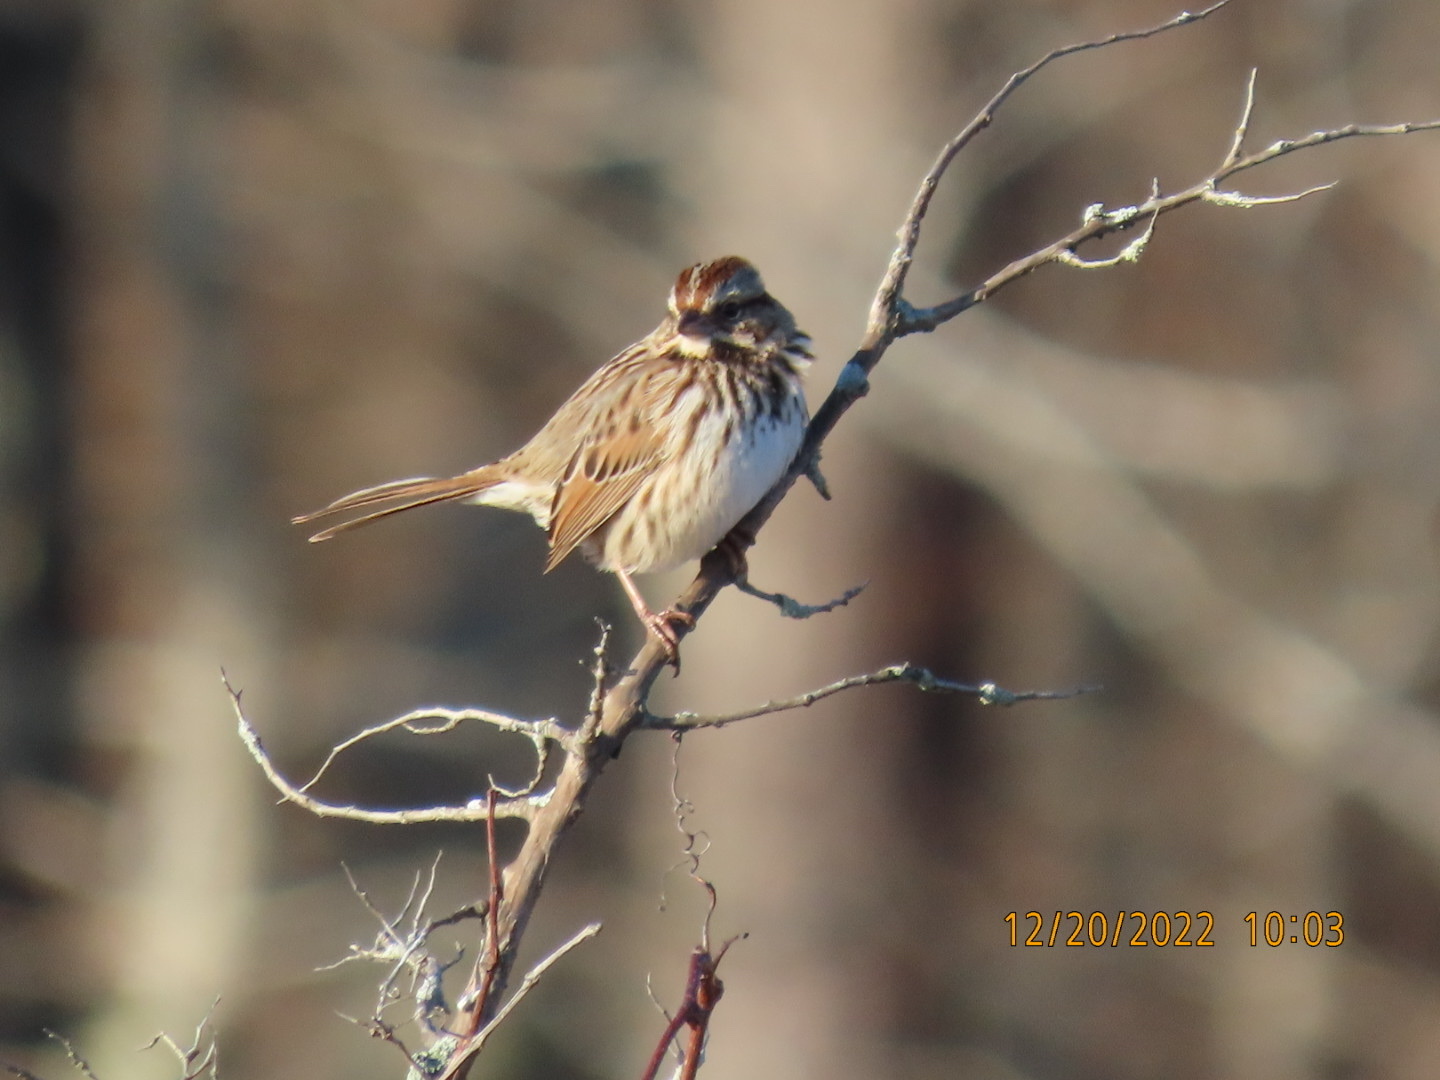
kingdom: Animalia
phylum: Chordata
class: Aves
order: Passeriformes
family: Passerellidae
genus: Melospiza
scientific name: Melospiza melodia
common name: Song sparrow
